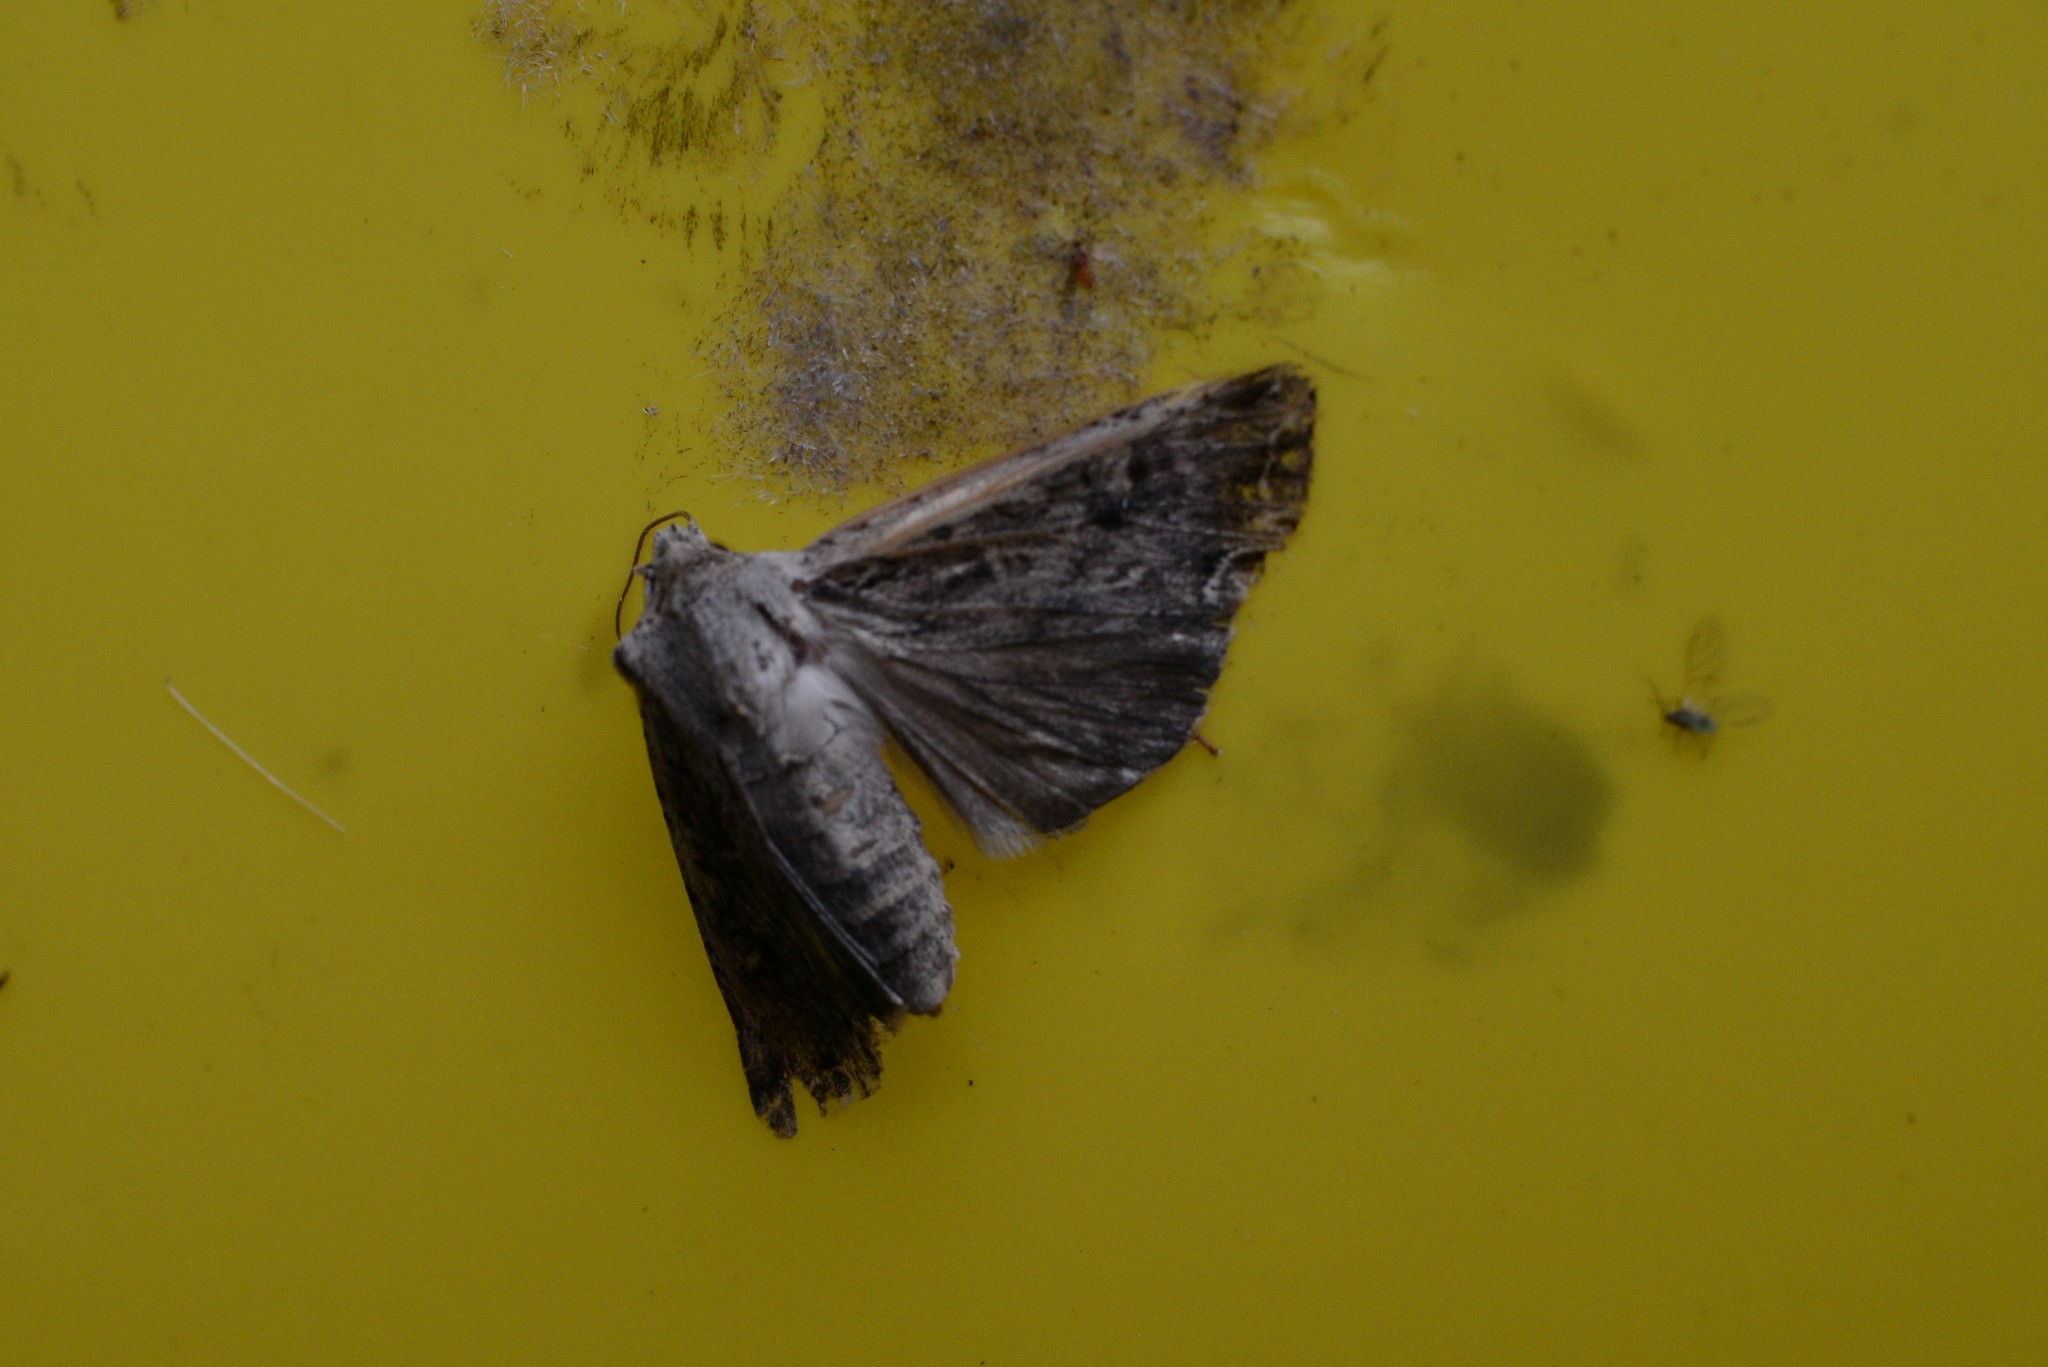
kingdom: Animalia
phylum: Arthropoda
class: Insecta
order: Lepidoptera
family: Noctuidae
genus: Ichneutica
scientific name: Ichneutica lignana
